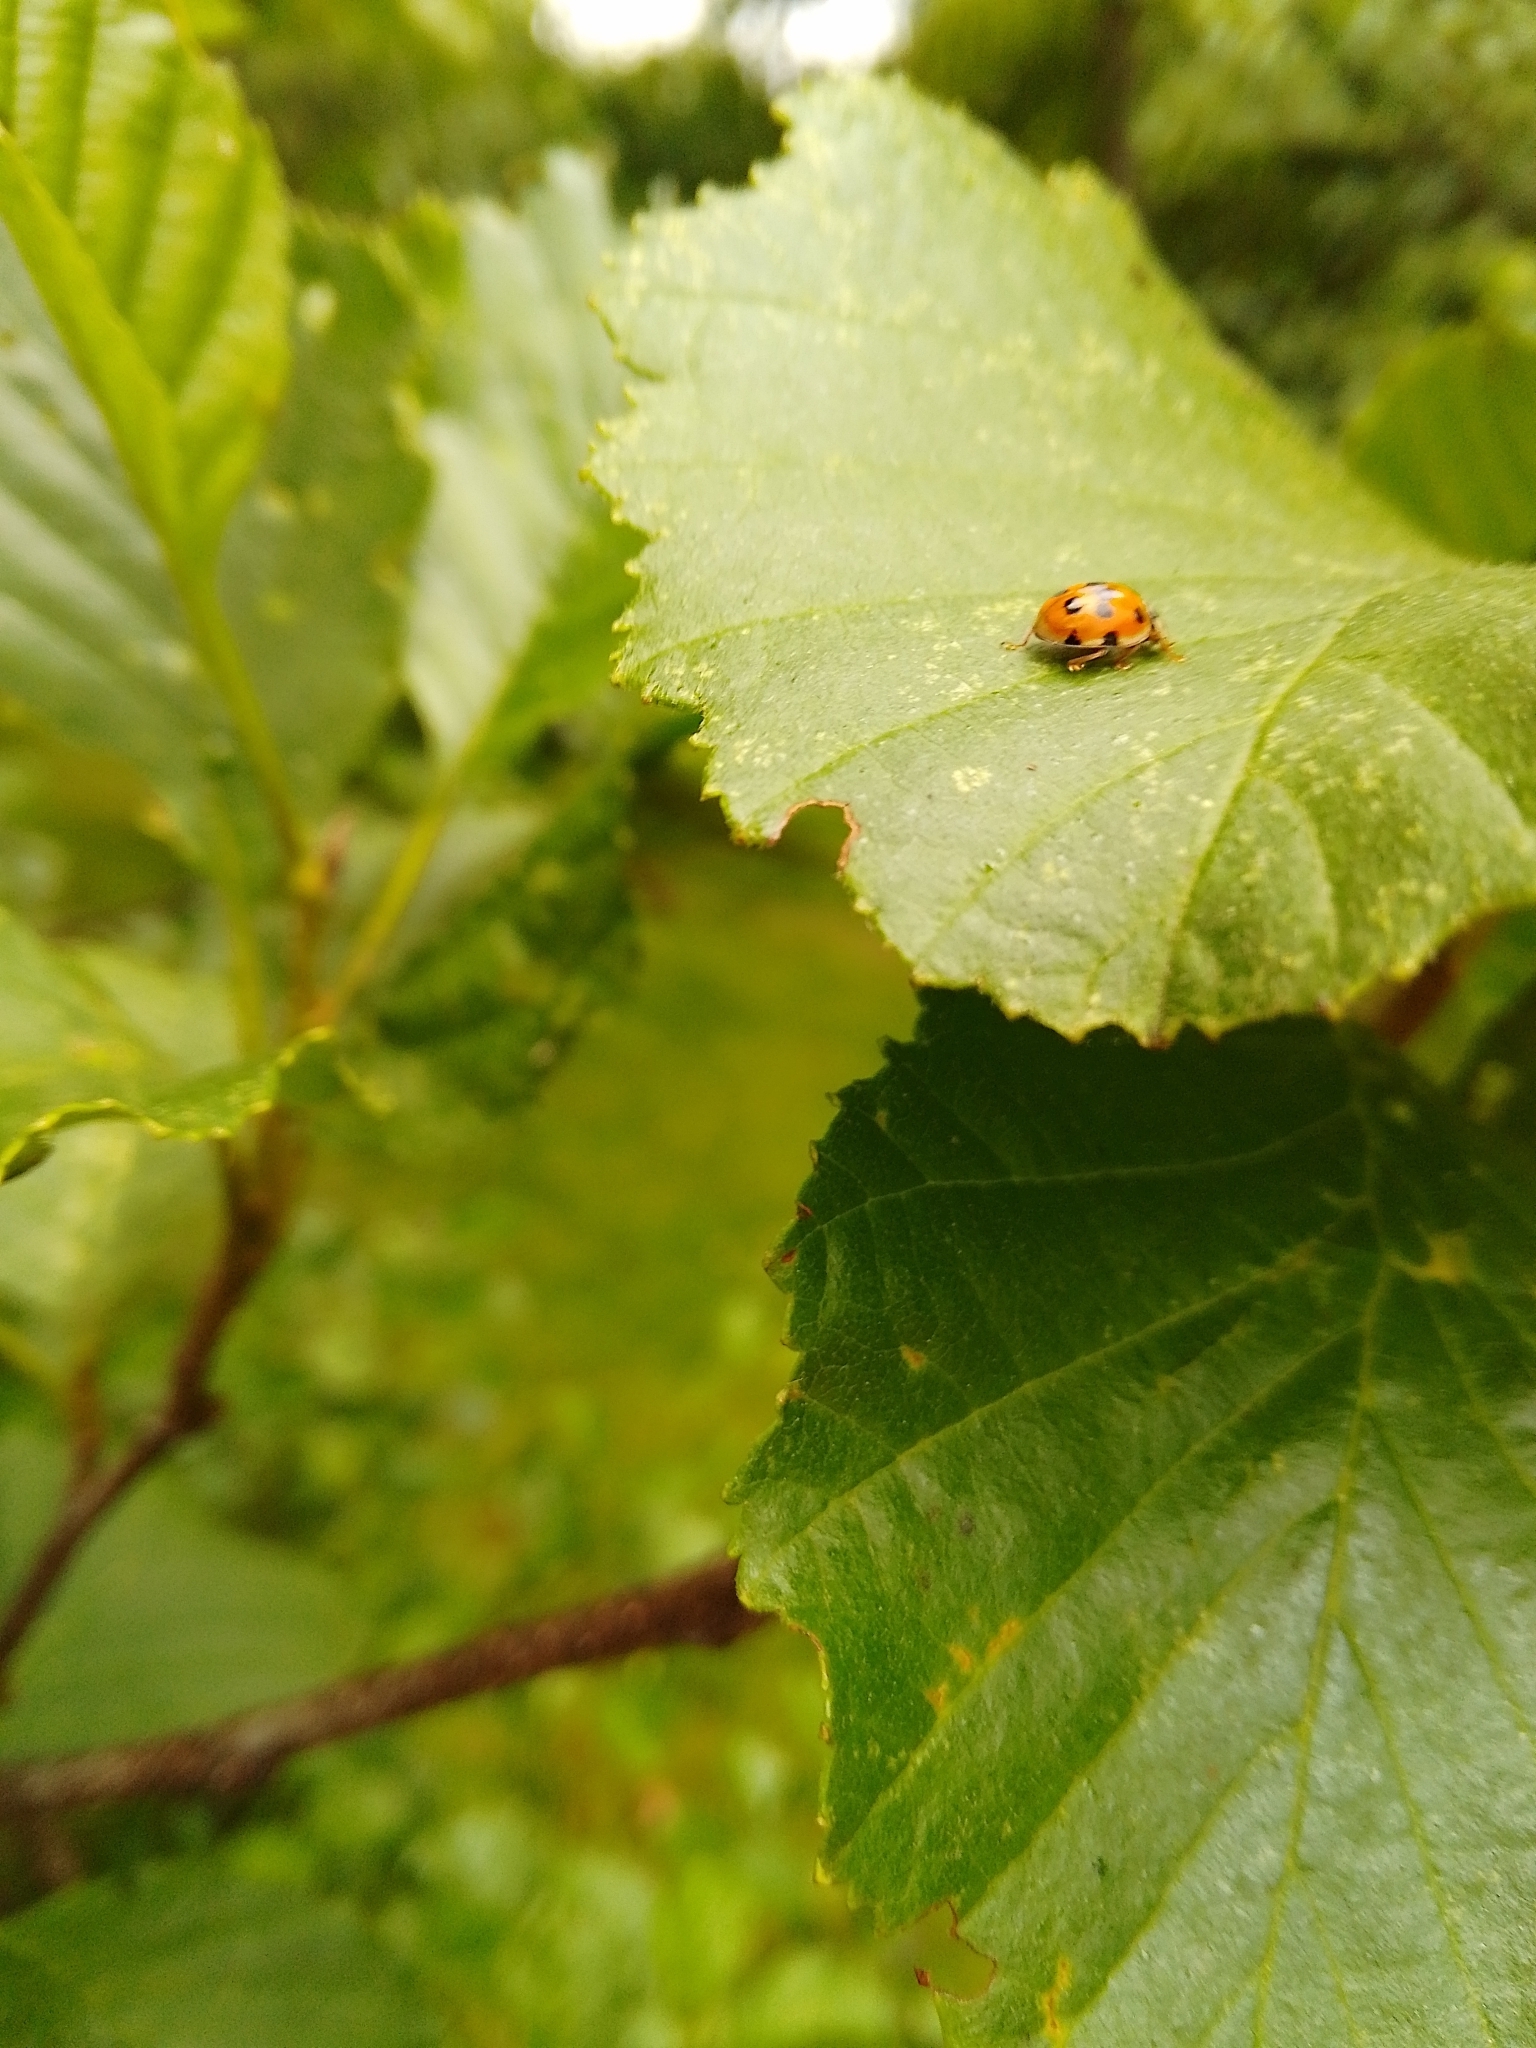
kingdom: Animalia
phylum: Arthropoda
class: Insecta
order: Coleoptera
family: Coccinellidae
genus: Adalia
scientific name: Adalia decempunctata
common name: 10-spot ladybird
